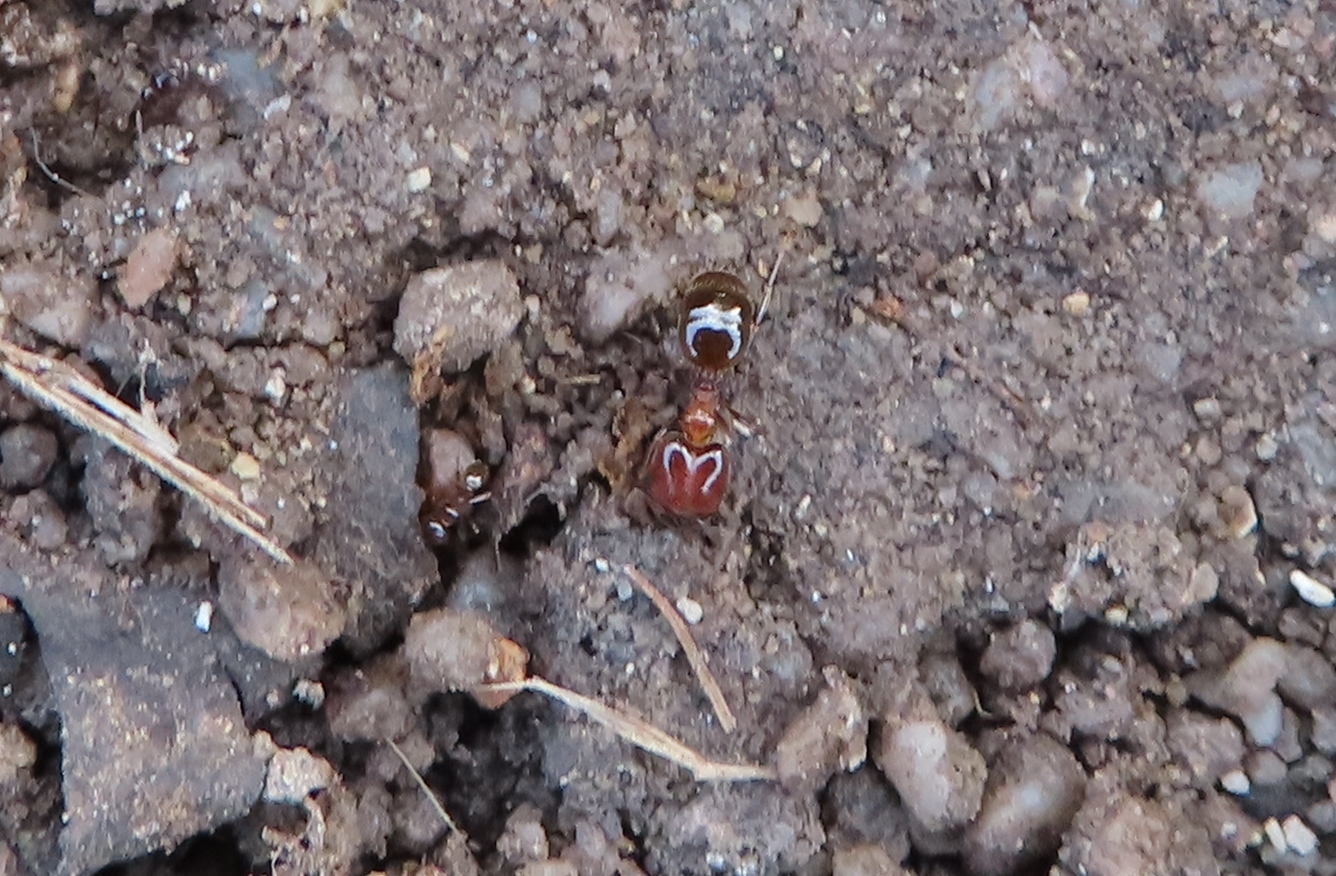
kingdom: Animalia
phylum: Arthropoda
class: Insecta
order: Hymenoptera
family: Formicidae
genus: Pheidole
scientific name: Pheidole capensis
